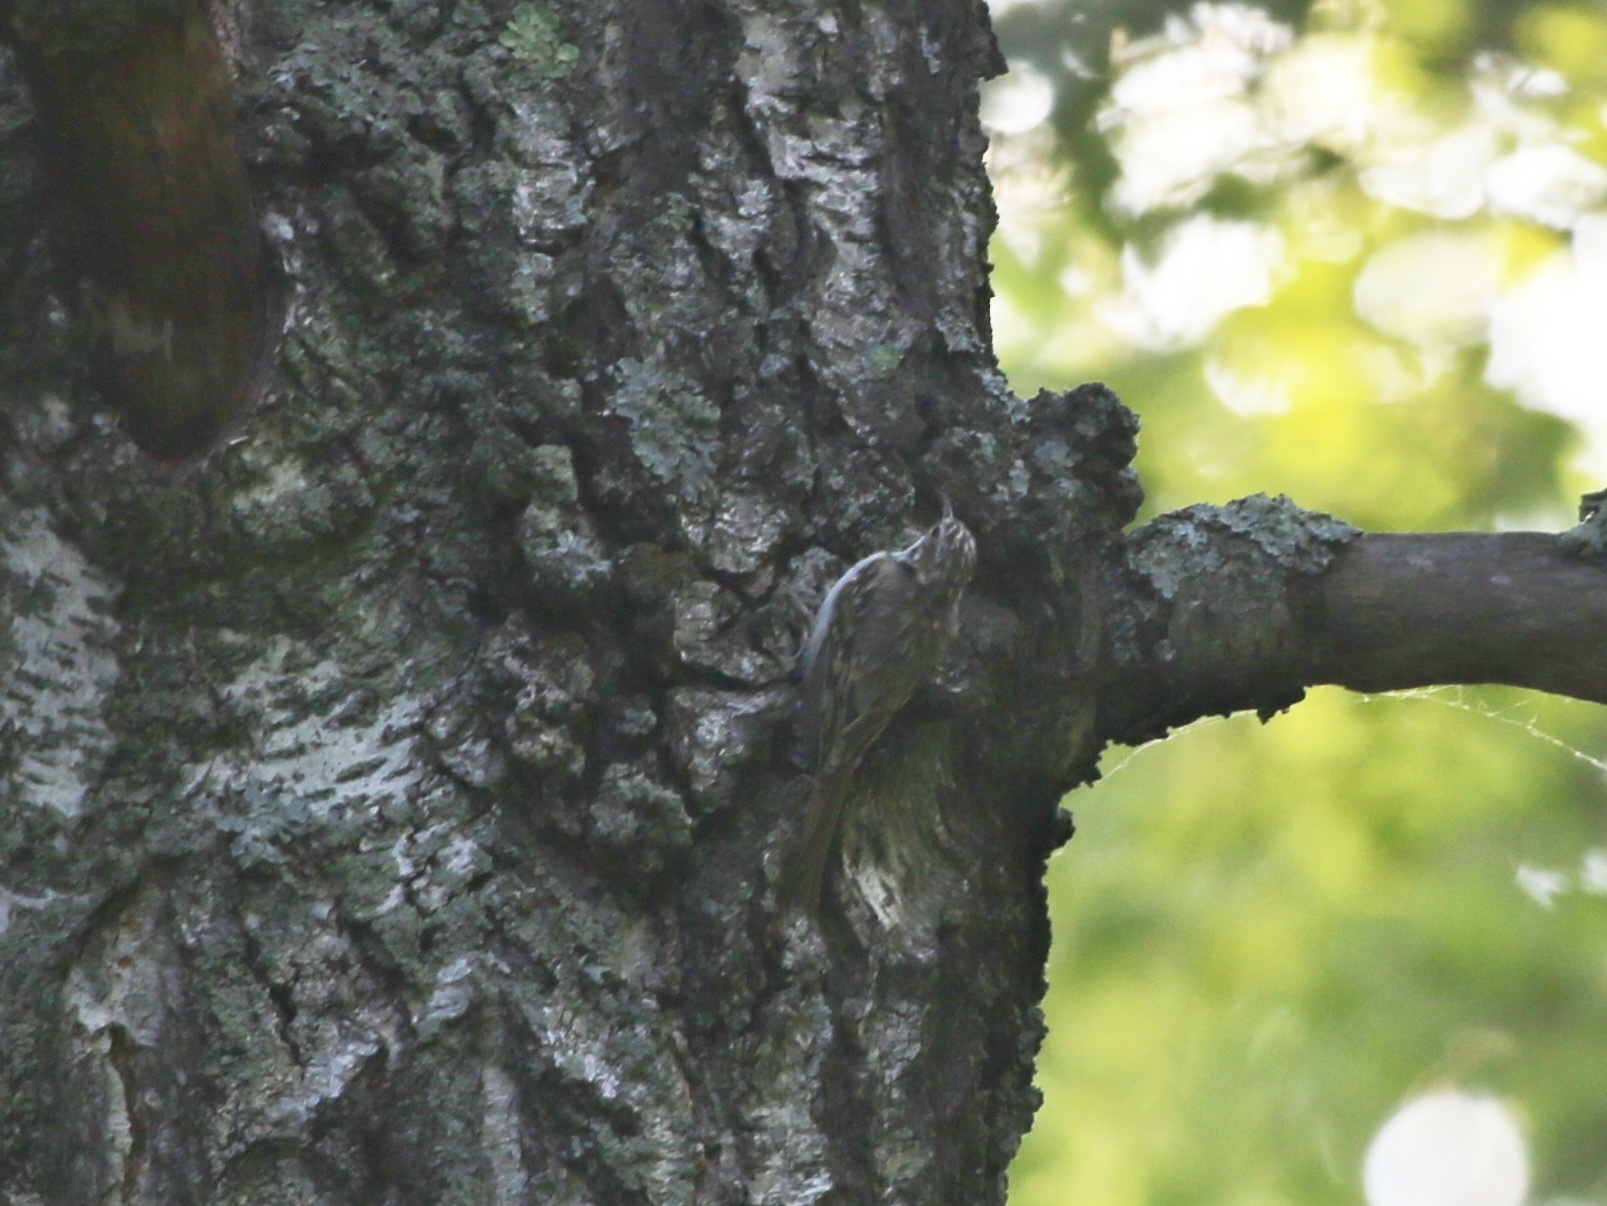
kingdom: Animalia
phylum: Chordata
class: Aves
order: Passeriformes
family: Certhiidae
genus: Certhia
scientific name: Certhia familiaris
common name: Eurasian treecreeper
